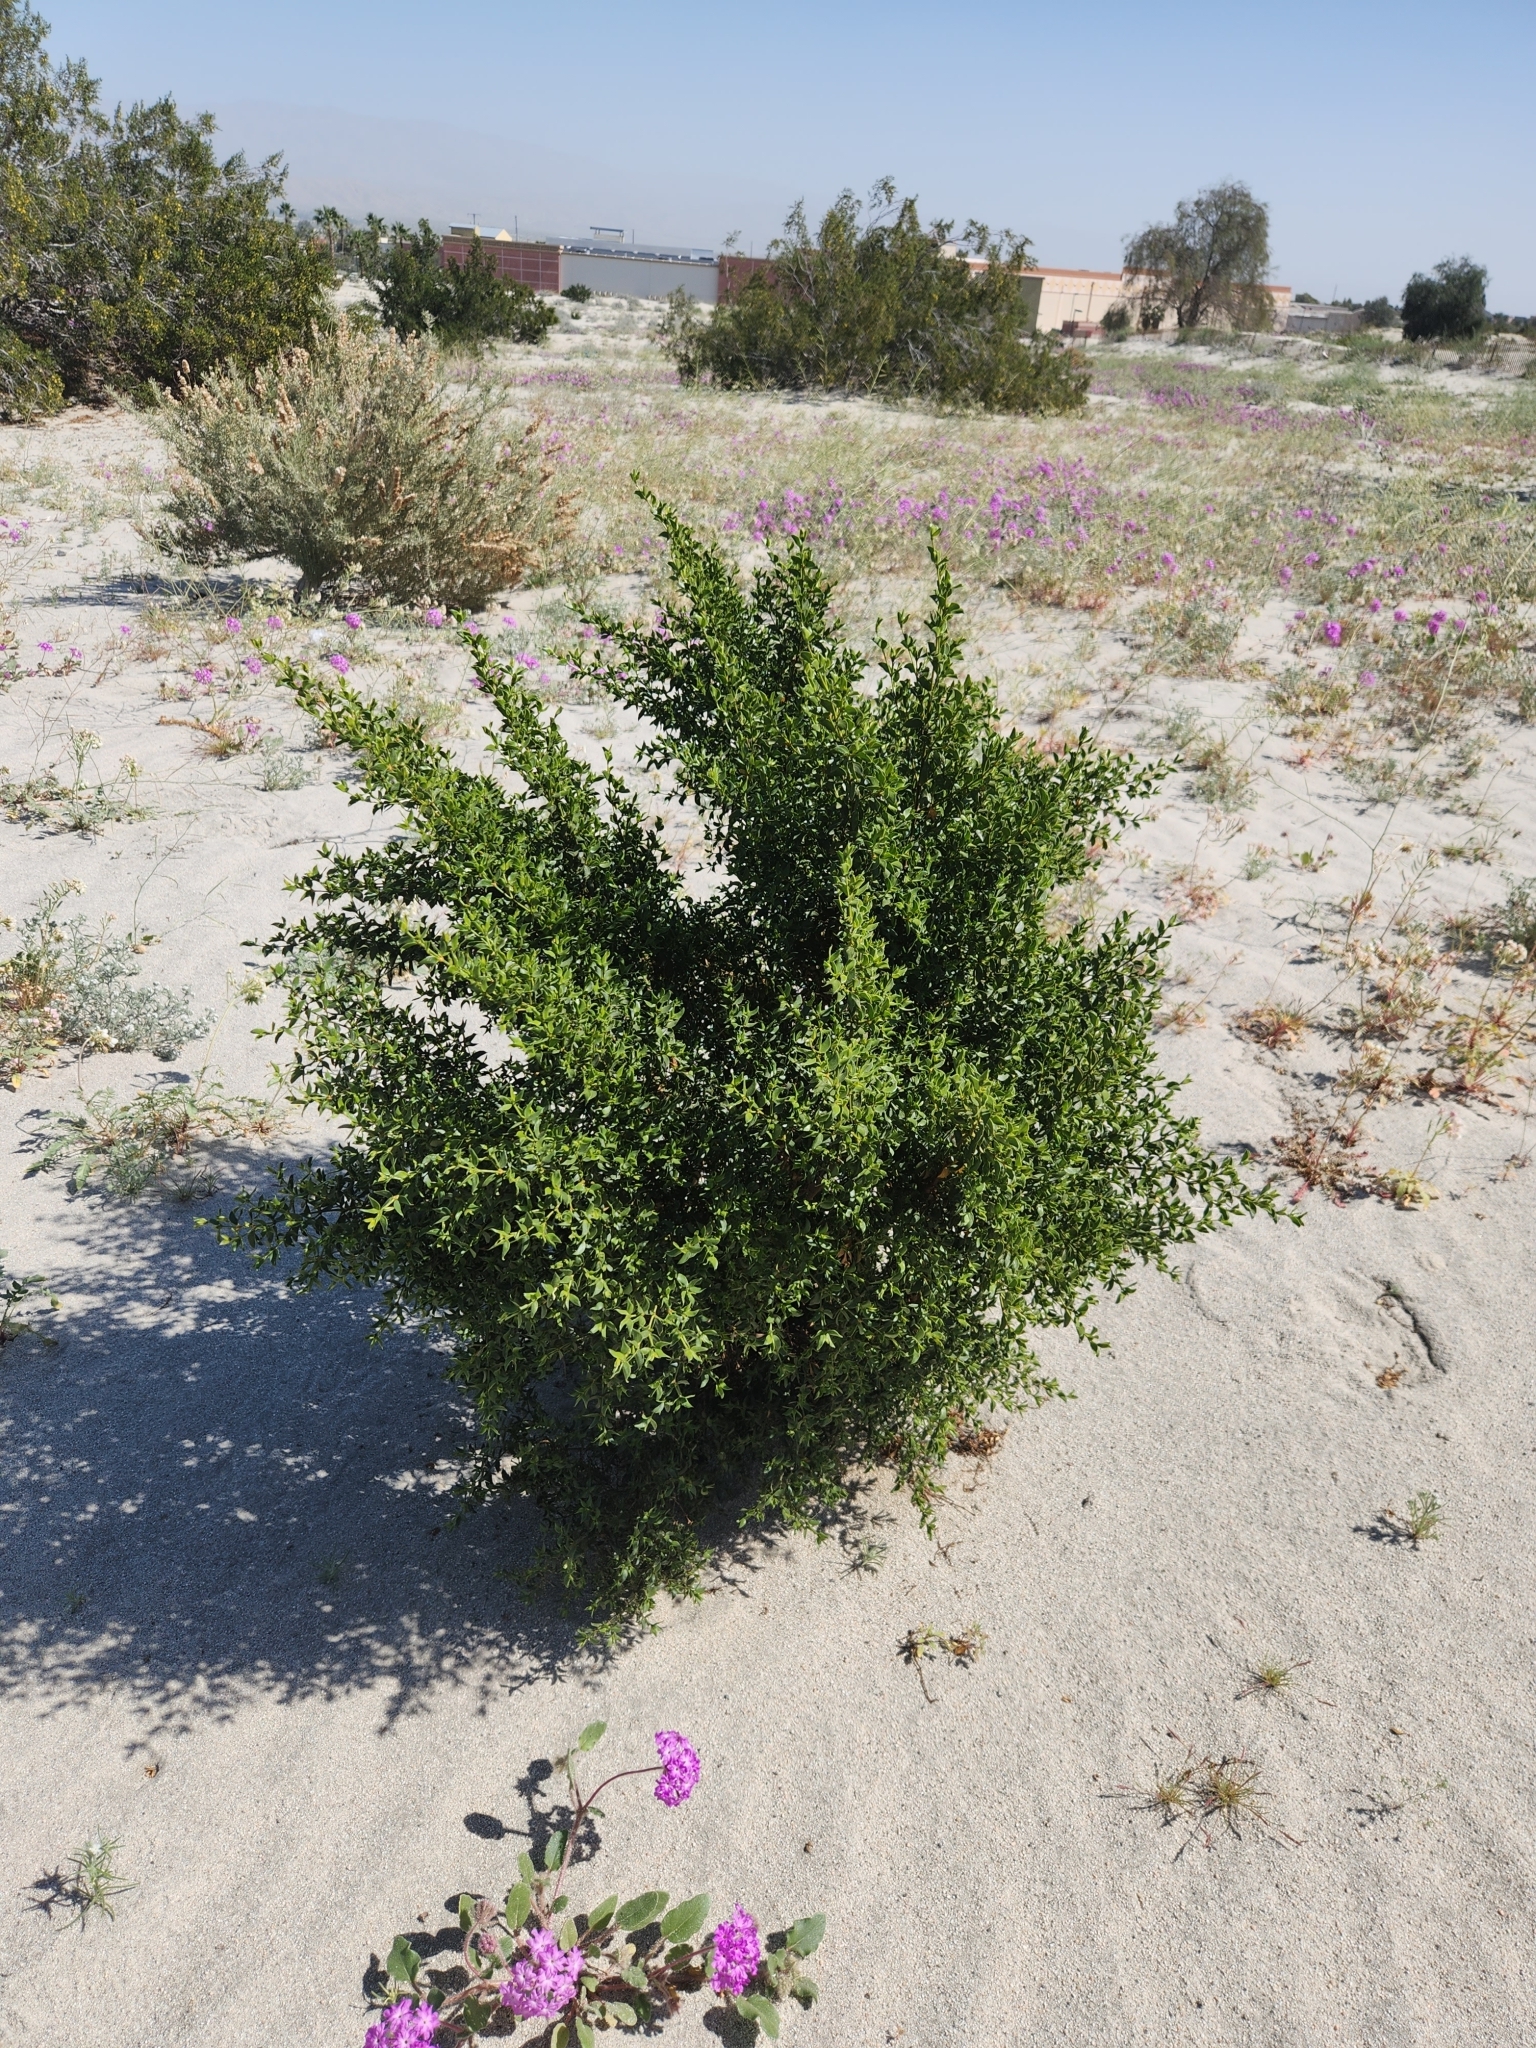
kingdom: Plantae
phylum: Tracheophyta
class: Magnoliopsida
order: Zygophyllales
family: Zygophyllaceae
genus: Larrea
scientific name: Larrea tridentata
